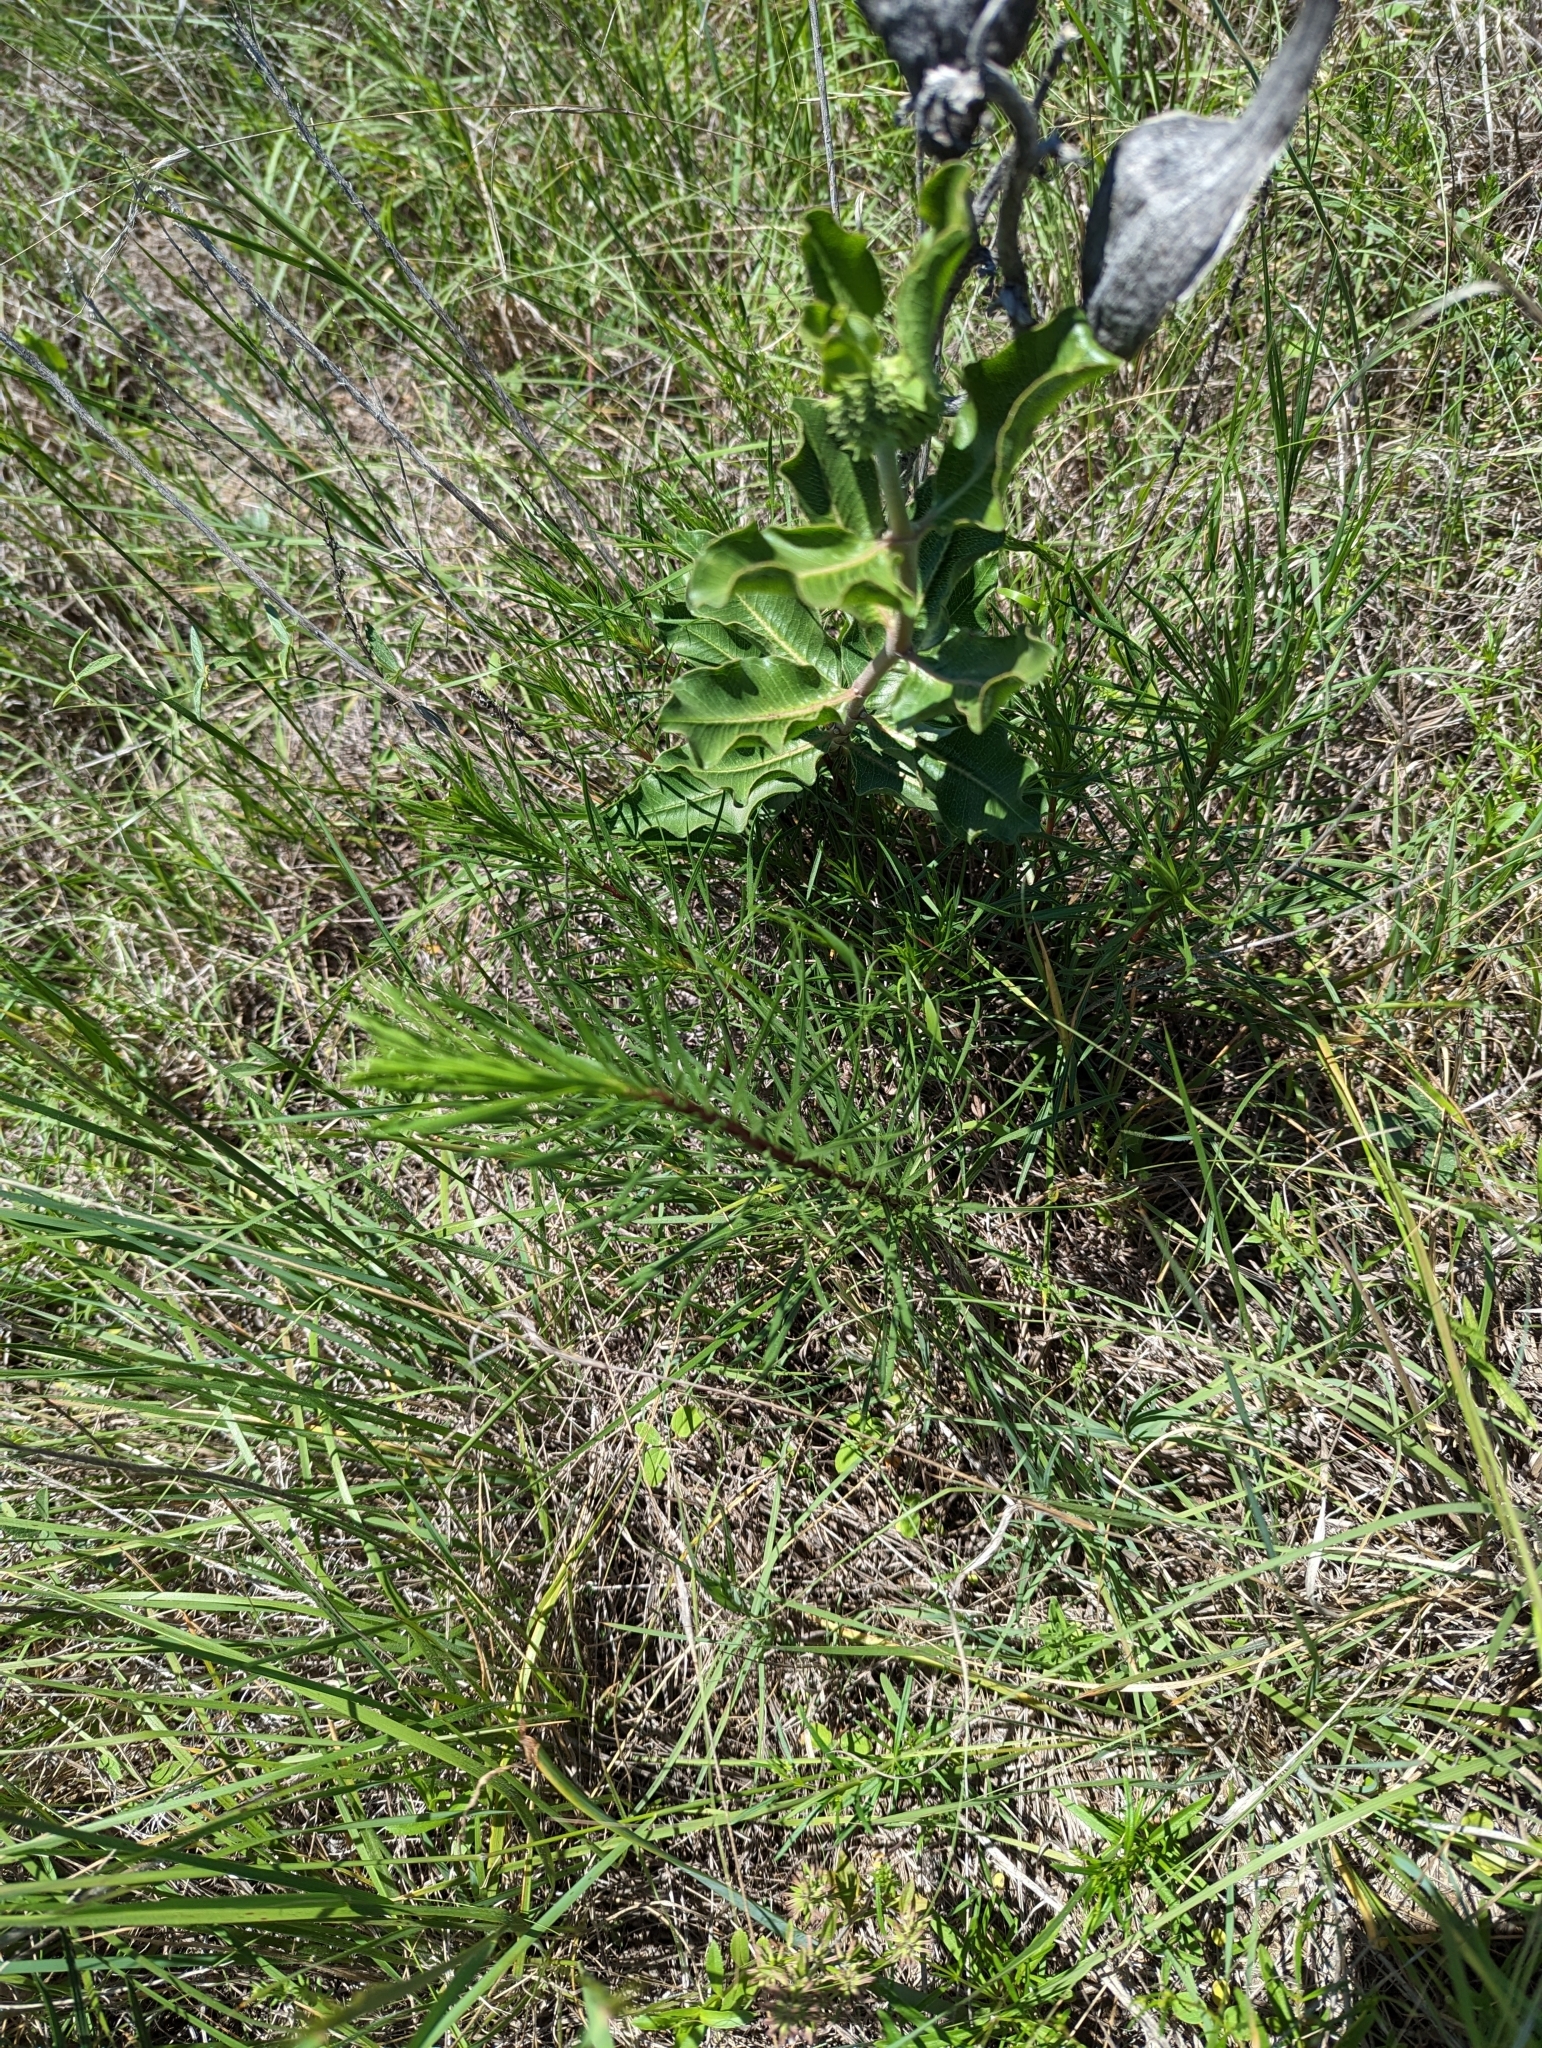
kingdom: Plantae
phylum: Tracheophyta
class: Magnoliopsida
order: Asterales
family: Asteraceae
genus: Liatris
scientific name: Liatris punctata
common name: Dotted gayfeather
